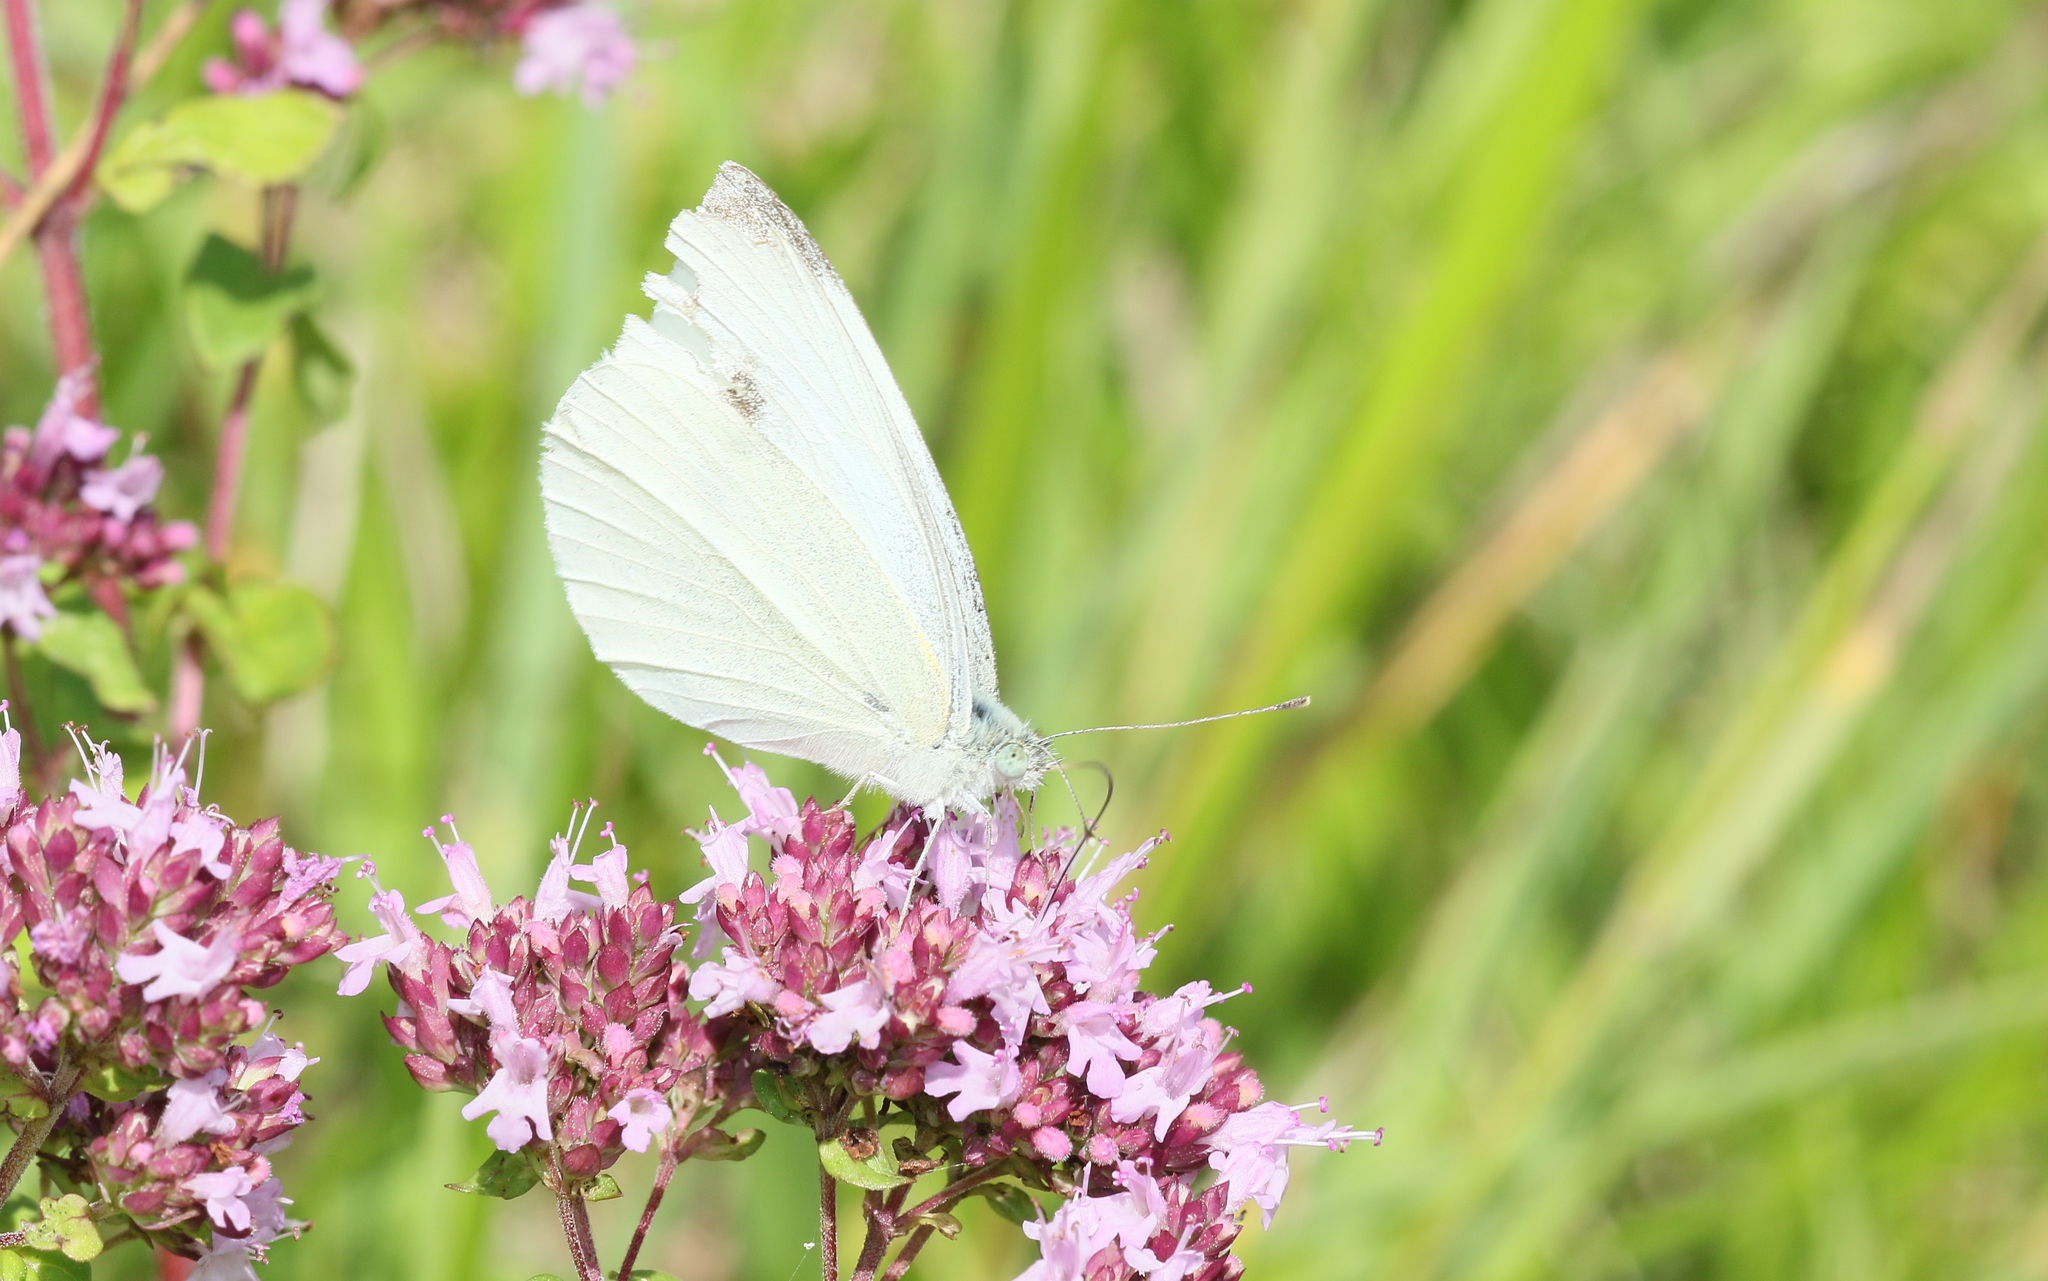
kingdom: Animalia
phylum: Arthropoda
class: Insecta
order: Lepidoptera
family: Pieridae
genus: Pieris
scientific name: Pieris rapae
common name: Small white
